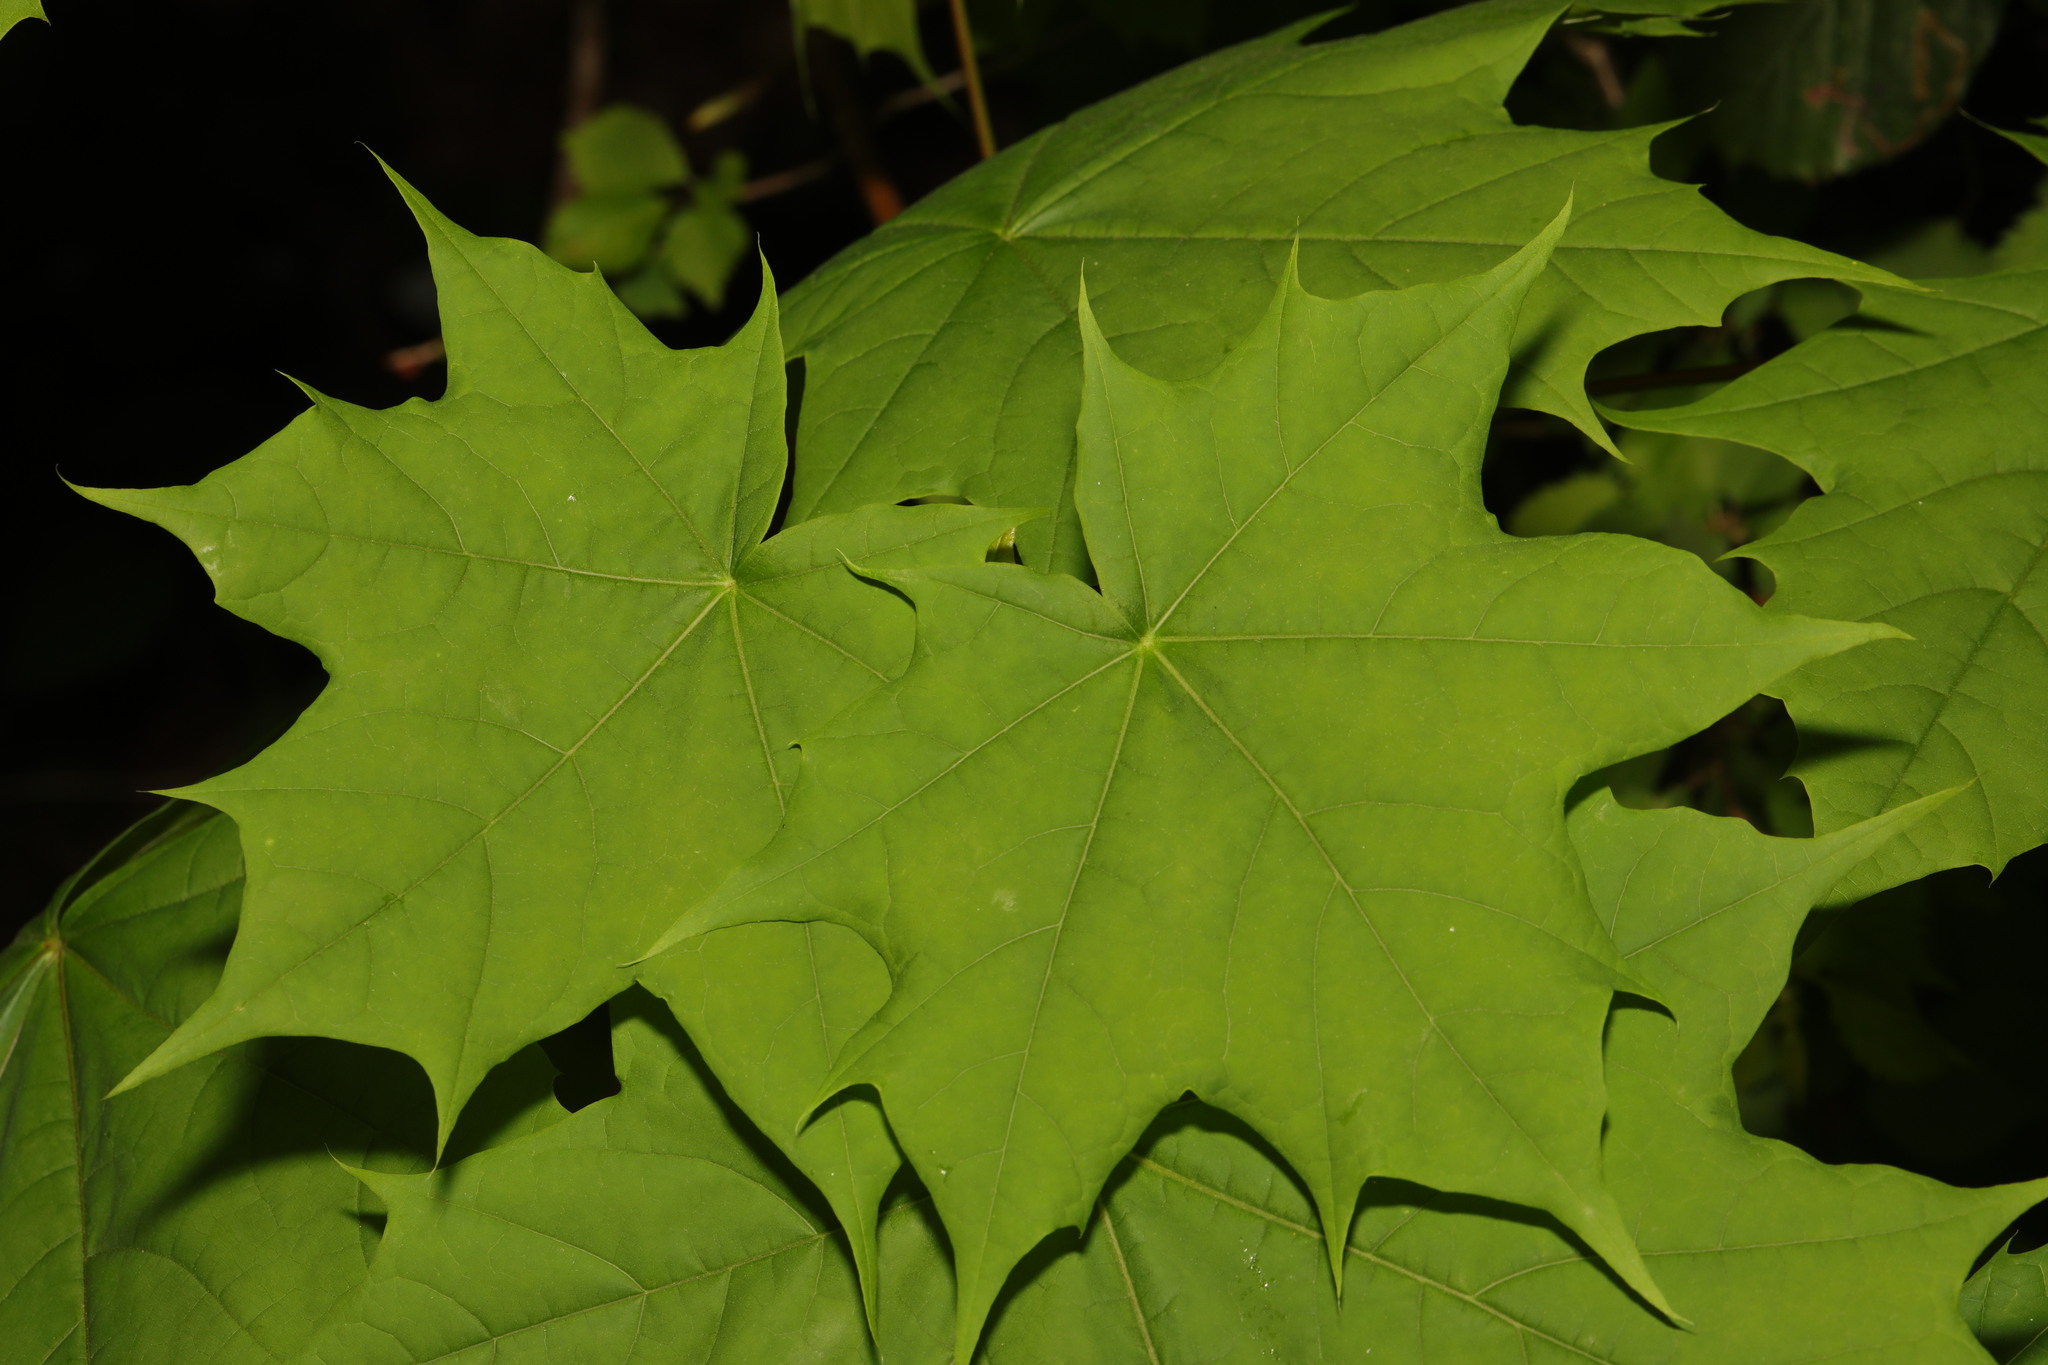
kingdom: Plantae
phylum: Tracheophyta
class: Magnoliopsida
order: Sapindales
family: Sapindaceae
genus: Acer
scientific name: Acer platanoides
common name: Norway maple
